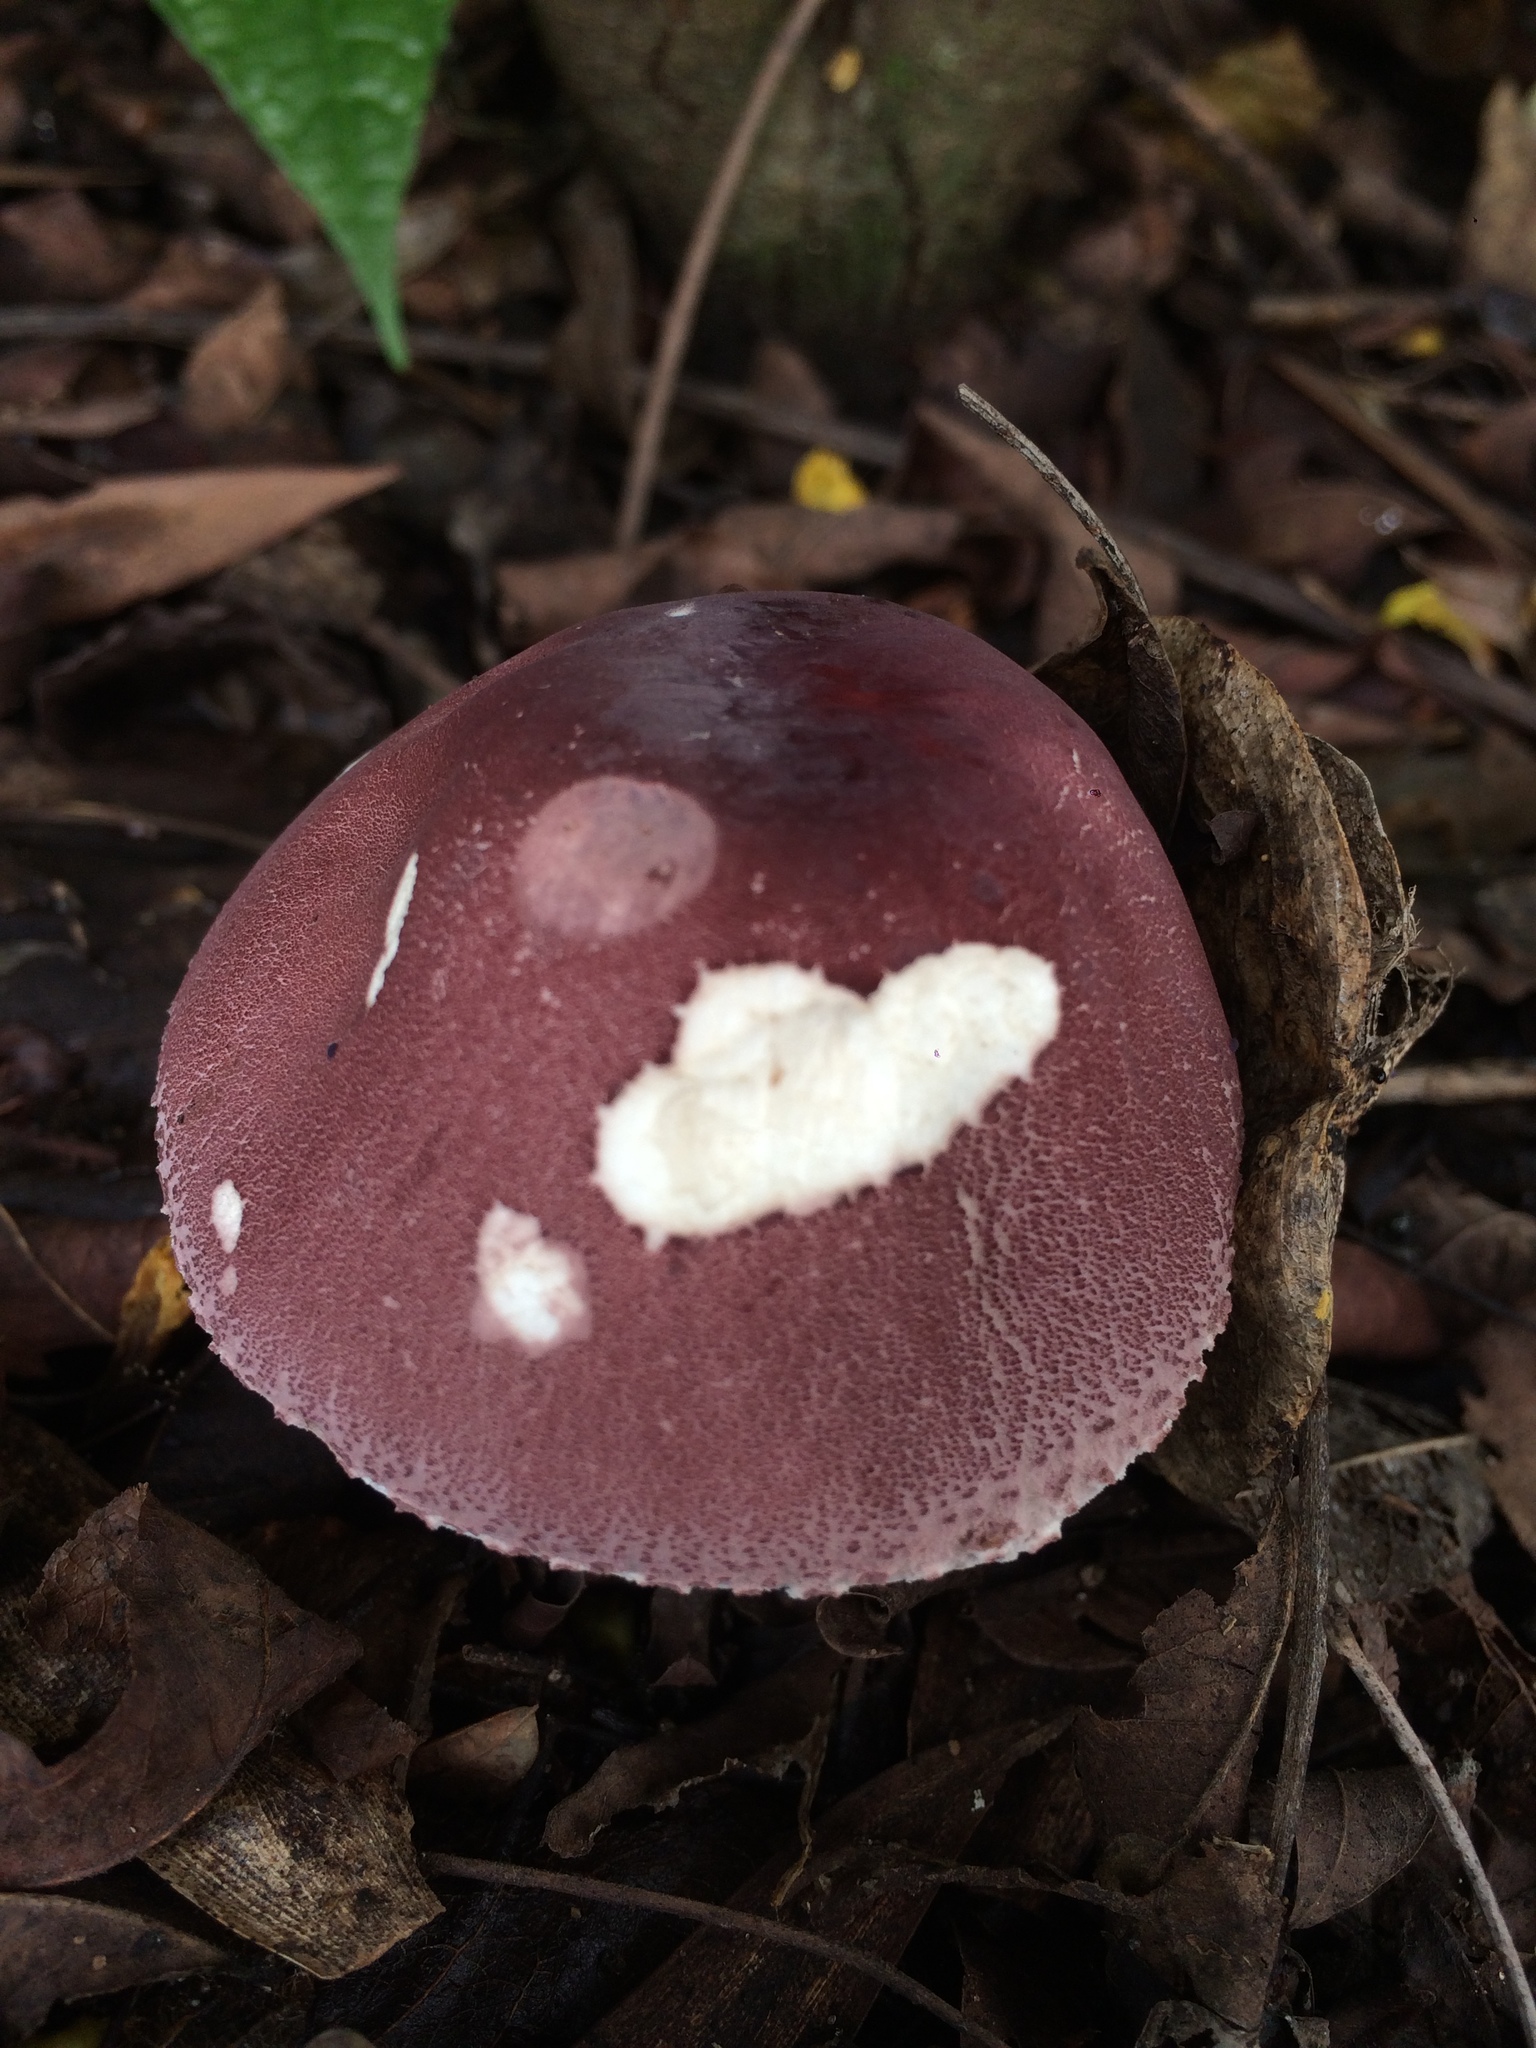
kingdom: Fungi
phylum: Basidiomycota
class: Agaricomycetes
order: Agaricales
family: Agaricaceae
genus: Leucoagaricus
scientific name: Leucoagaricus lilaceus
